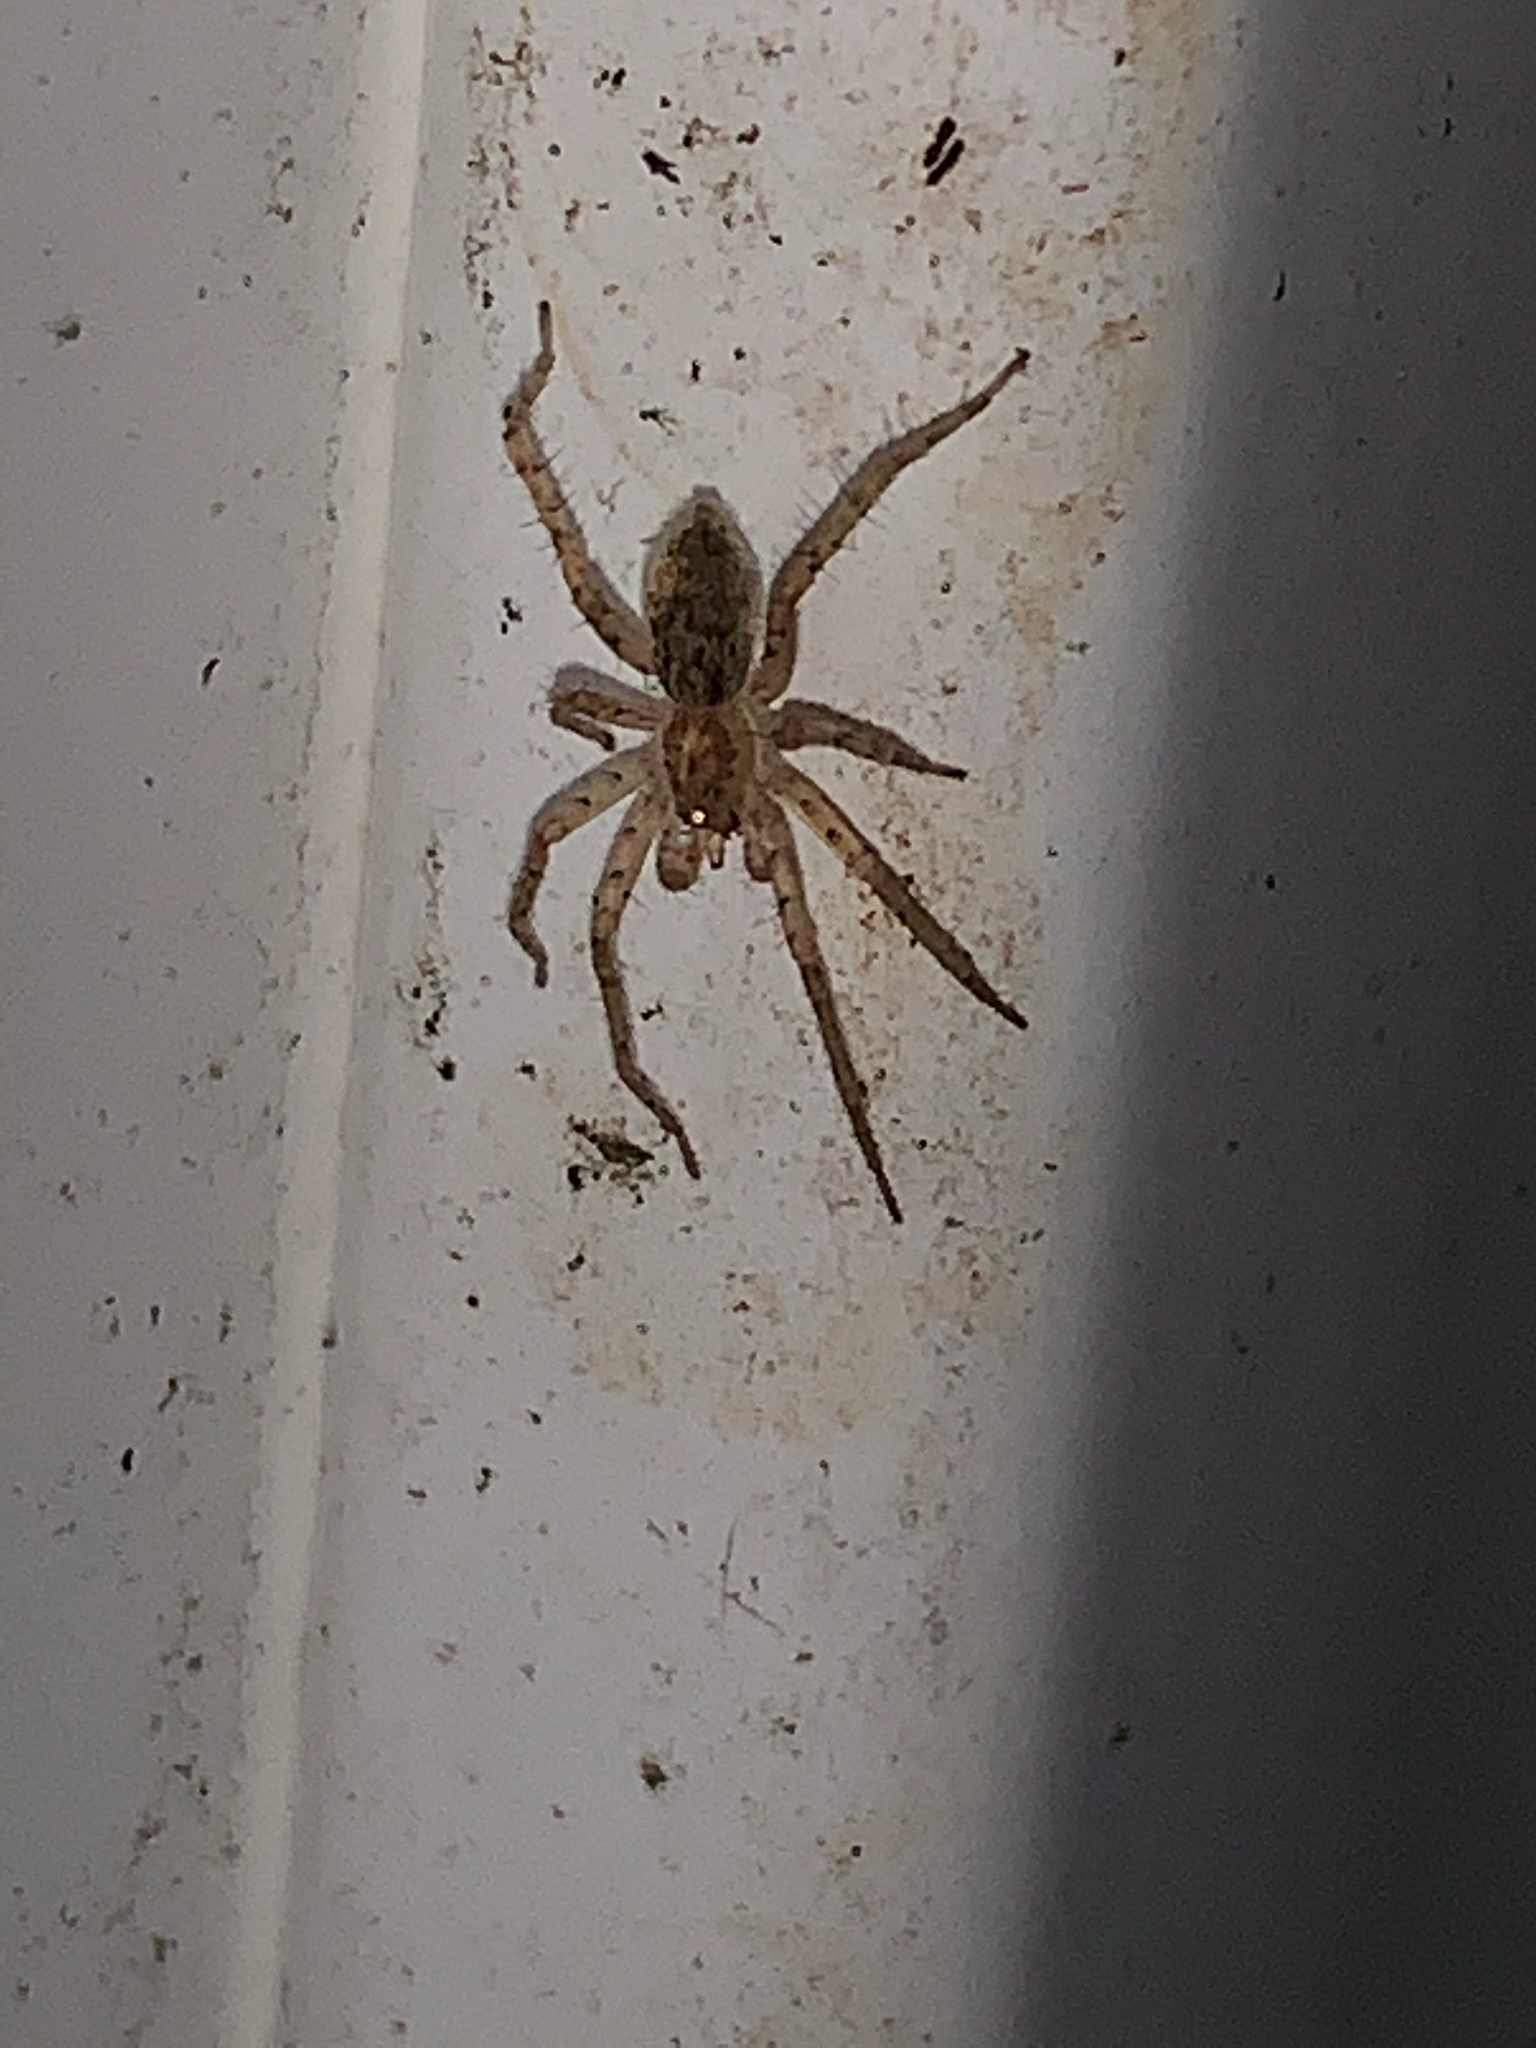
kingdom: Animalia
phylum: Arthropoda
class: Arachnida
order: Araneae
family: Anyphaenidae
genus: Anyphaena
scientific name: Anyphaena
